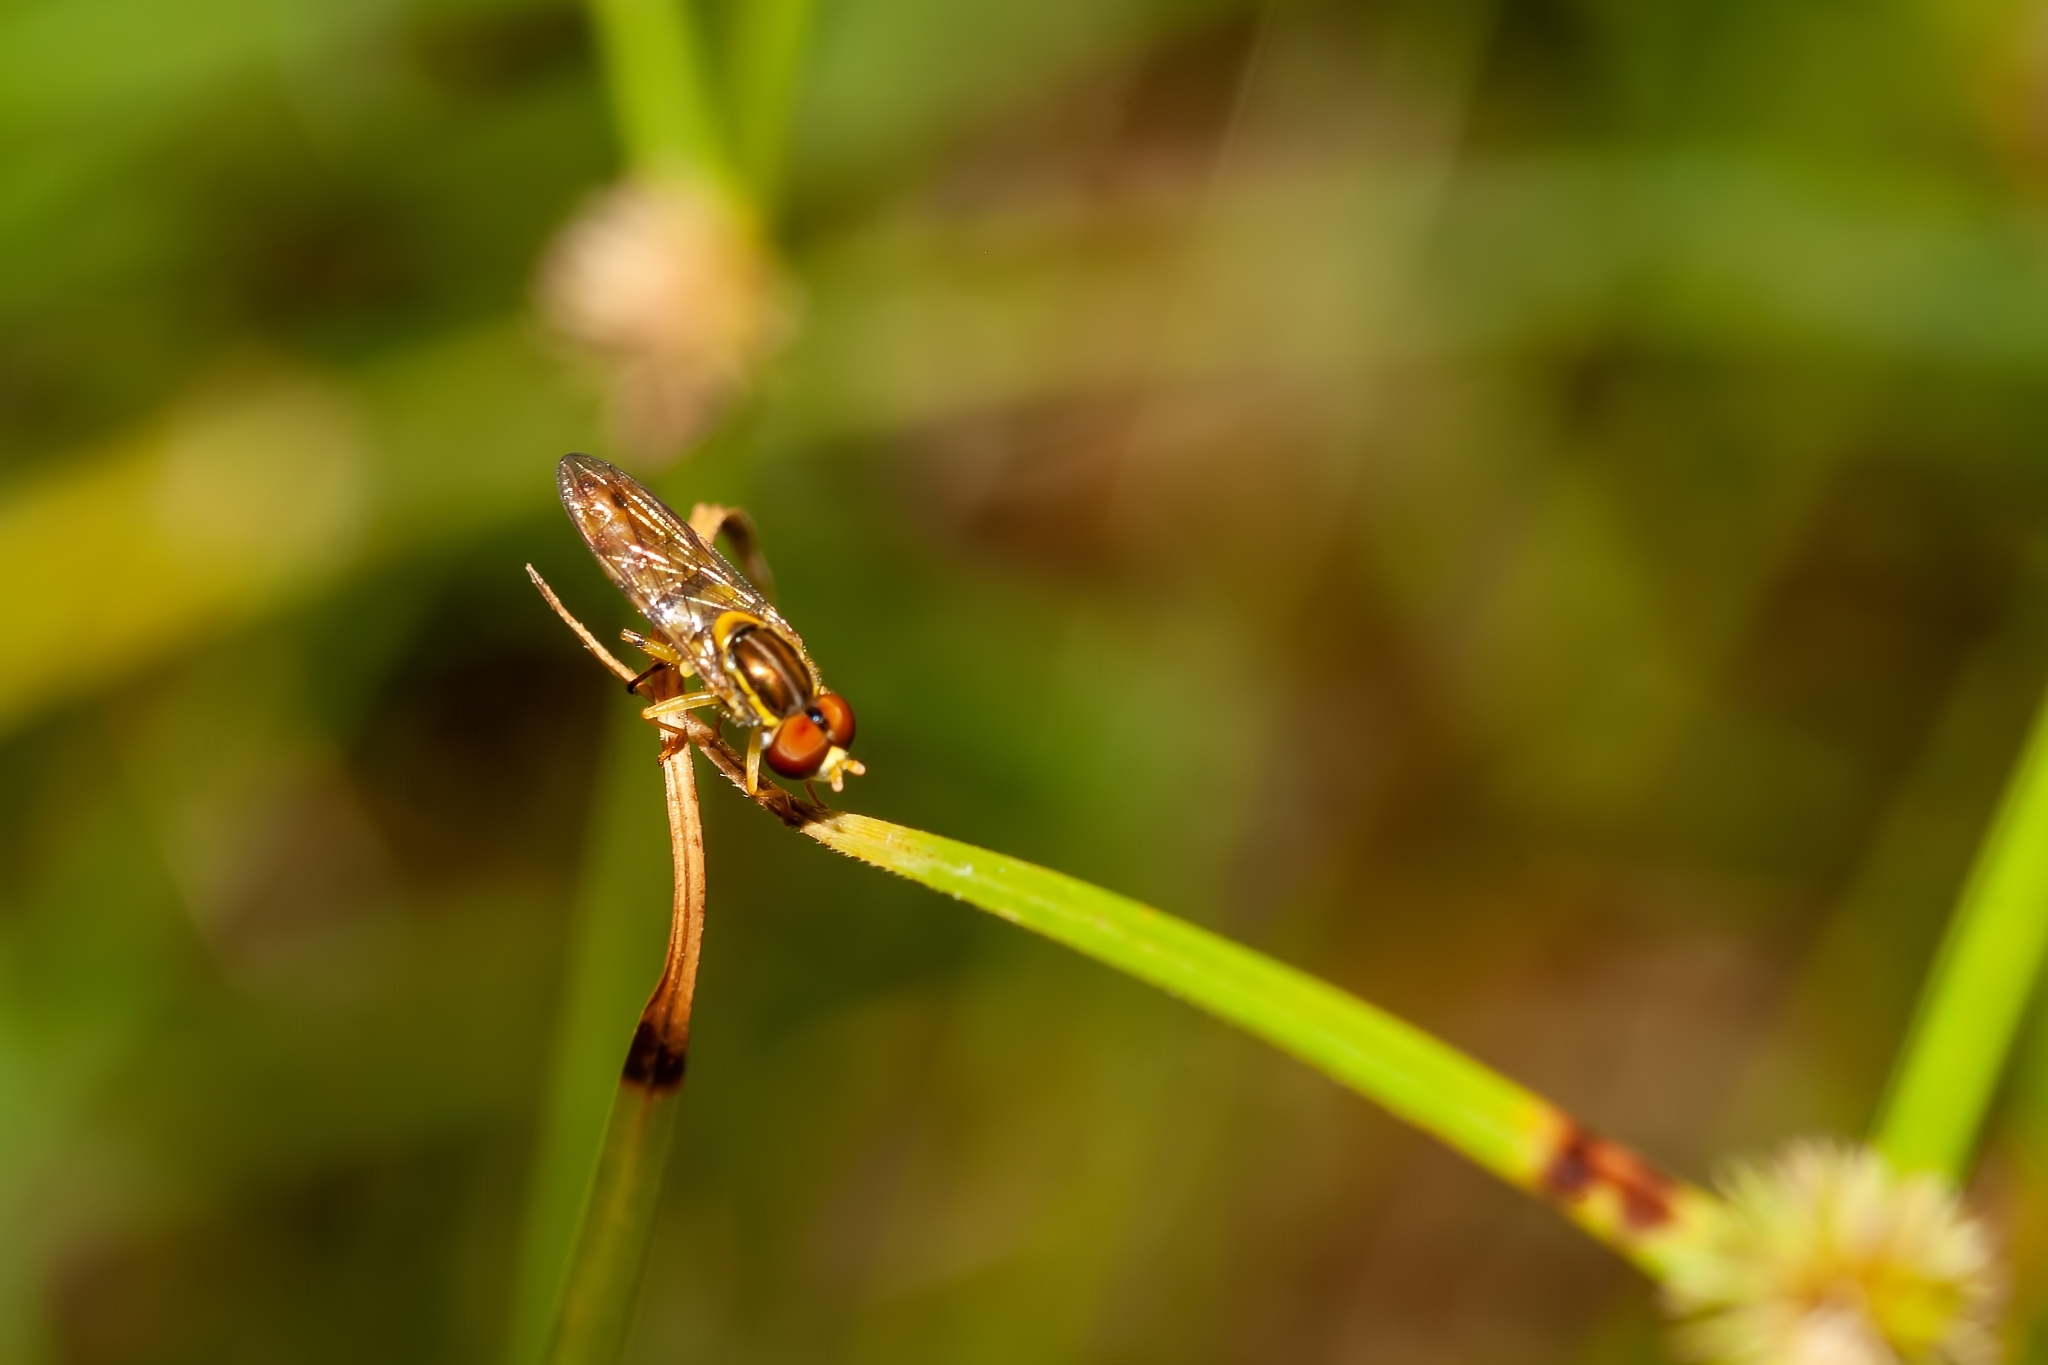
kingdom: Animalia
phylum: Arthropoda
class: Insecta
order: Diptera
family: Syrphidae
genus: Toxomerus
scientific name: Toxomerus floralis
